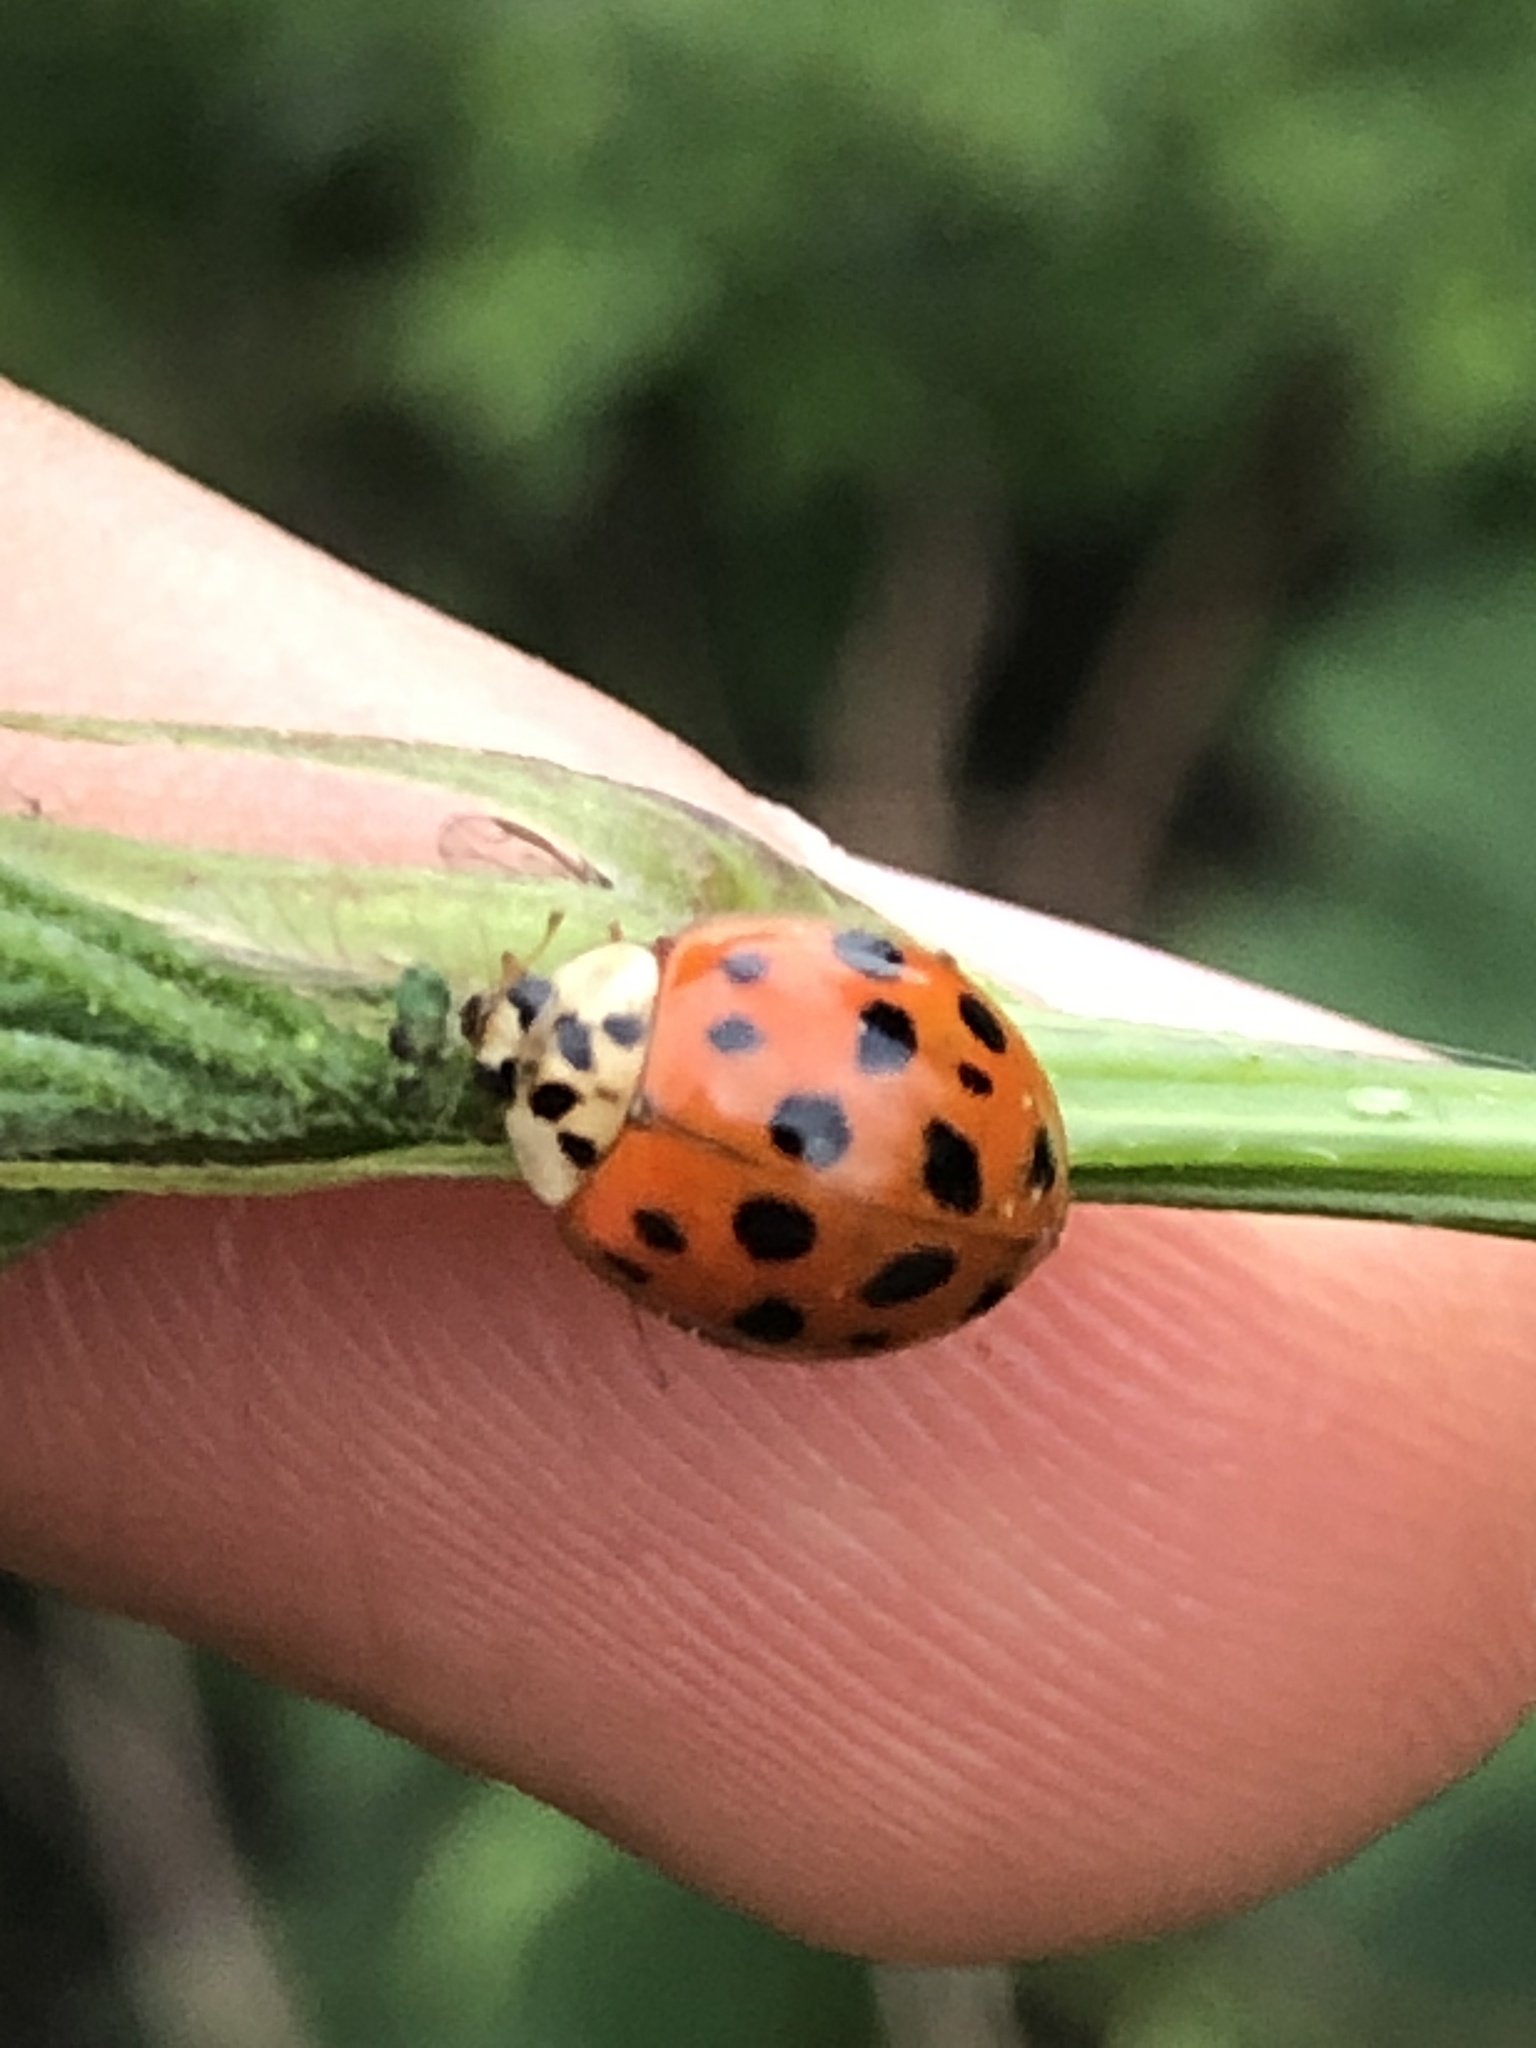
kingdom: Animalia
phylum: Arthropoda
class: Insecta
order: Coleoptera
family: Coccinellidae
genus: Harmonia
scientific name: Harmonia axyridis
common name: Harlequin ladybird
